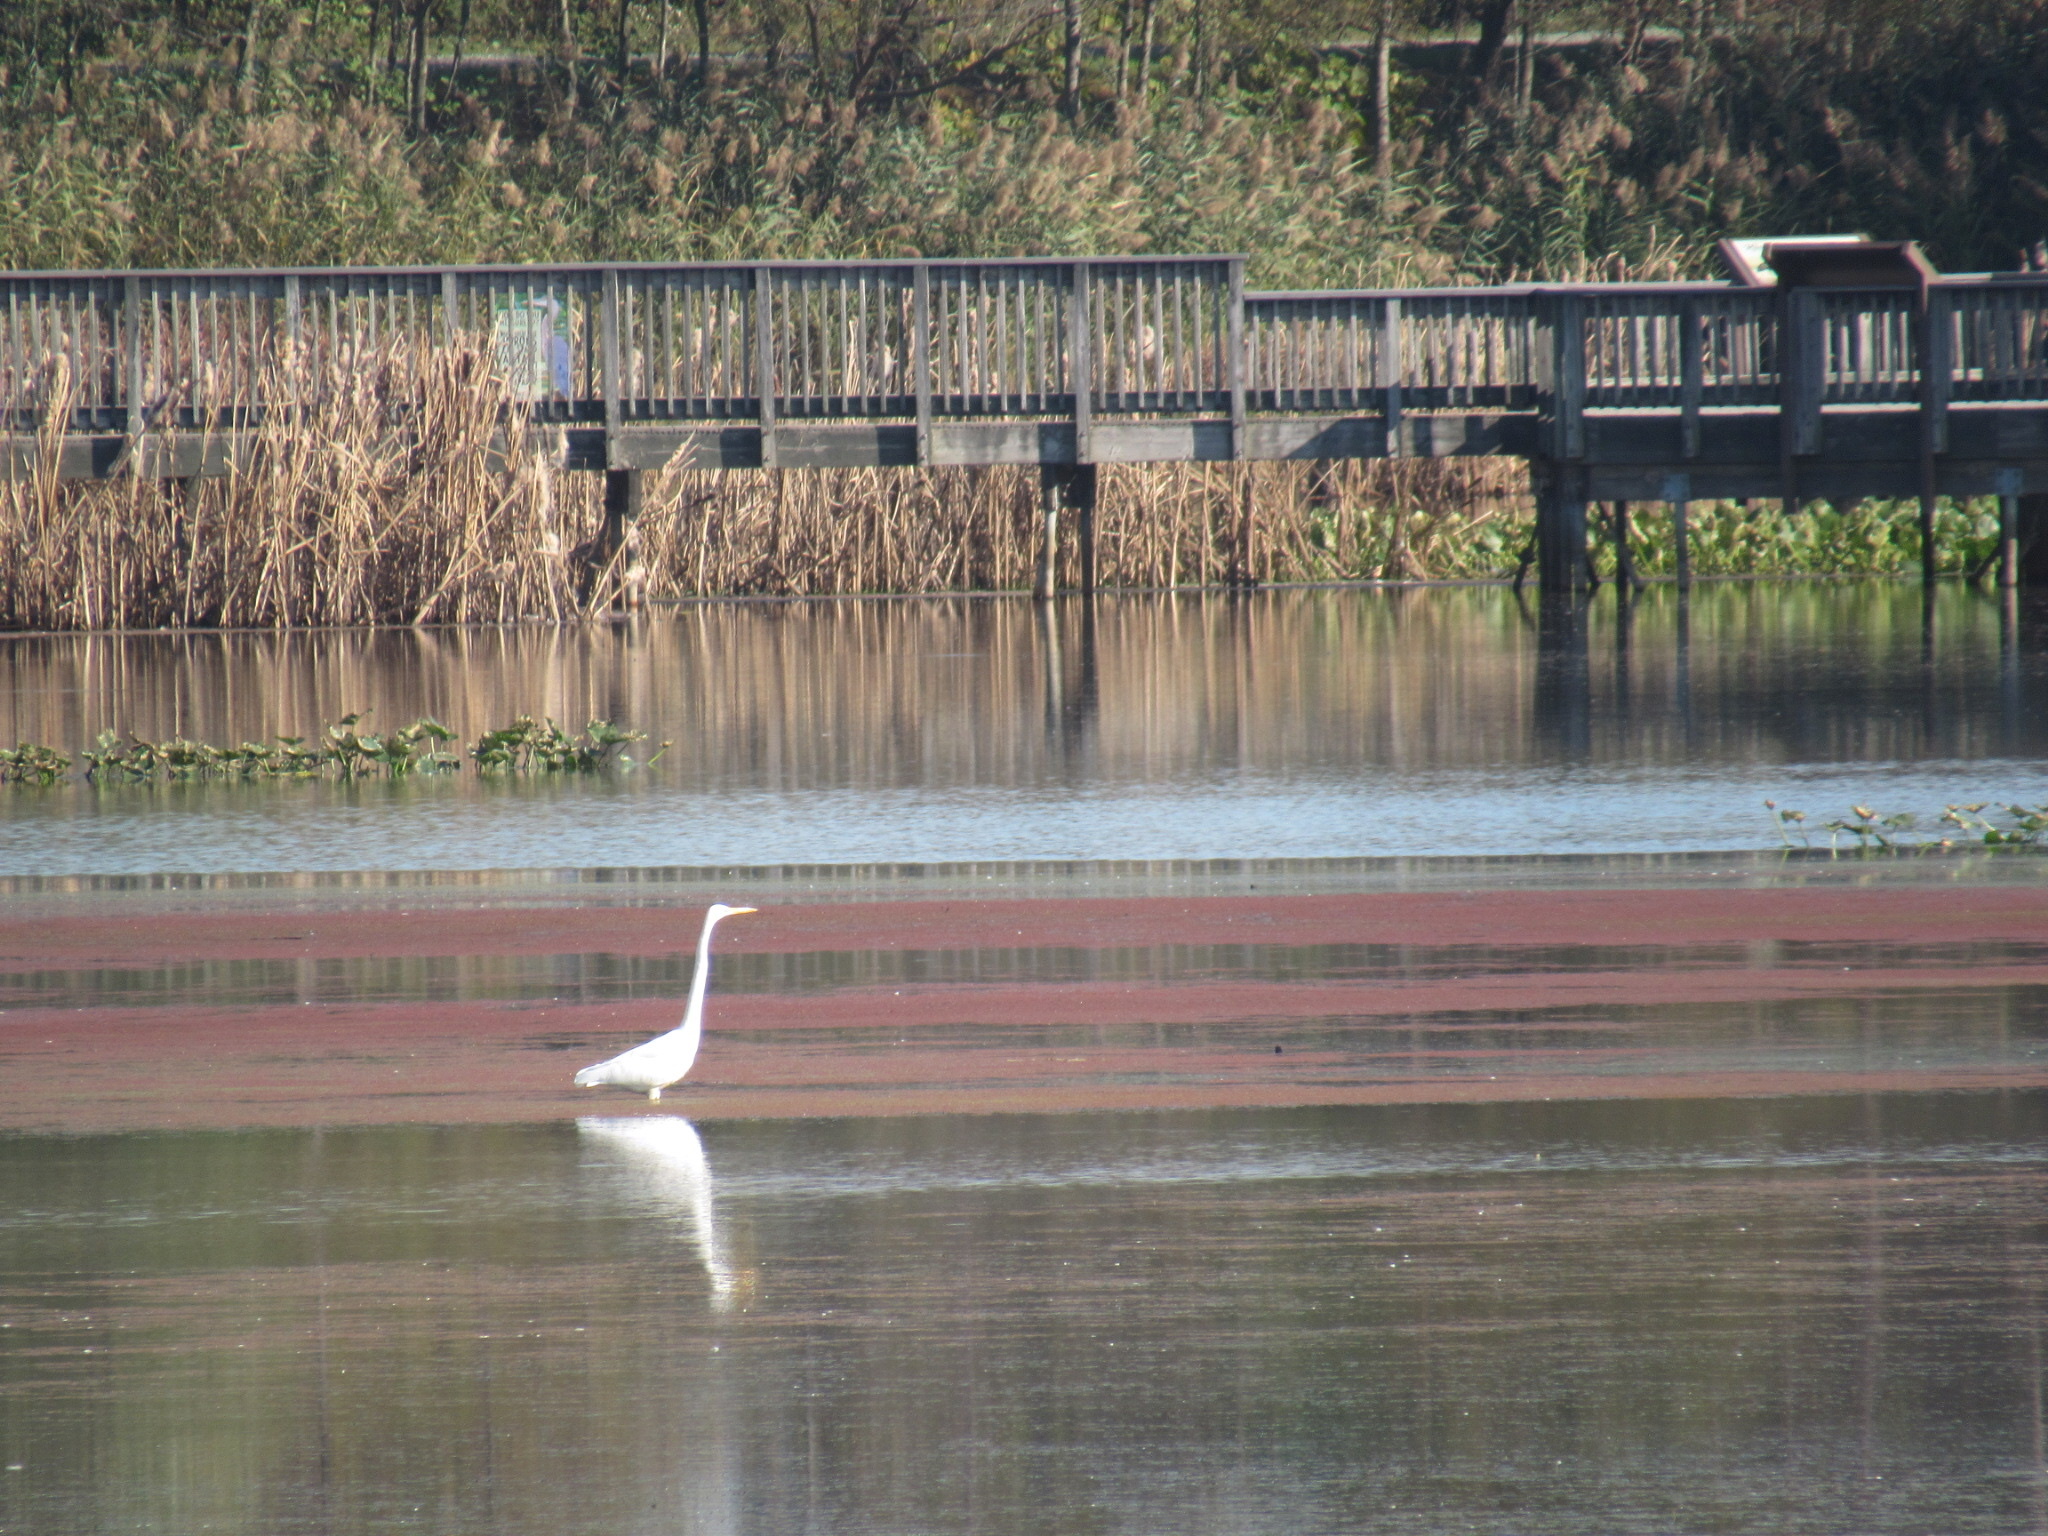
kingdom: Animalia
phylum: Chordata
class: Aves
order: Pelecaniformes
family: Ardeidae
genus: Ardea
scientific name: Ardea alba
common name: Great egret
